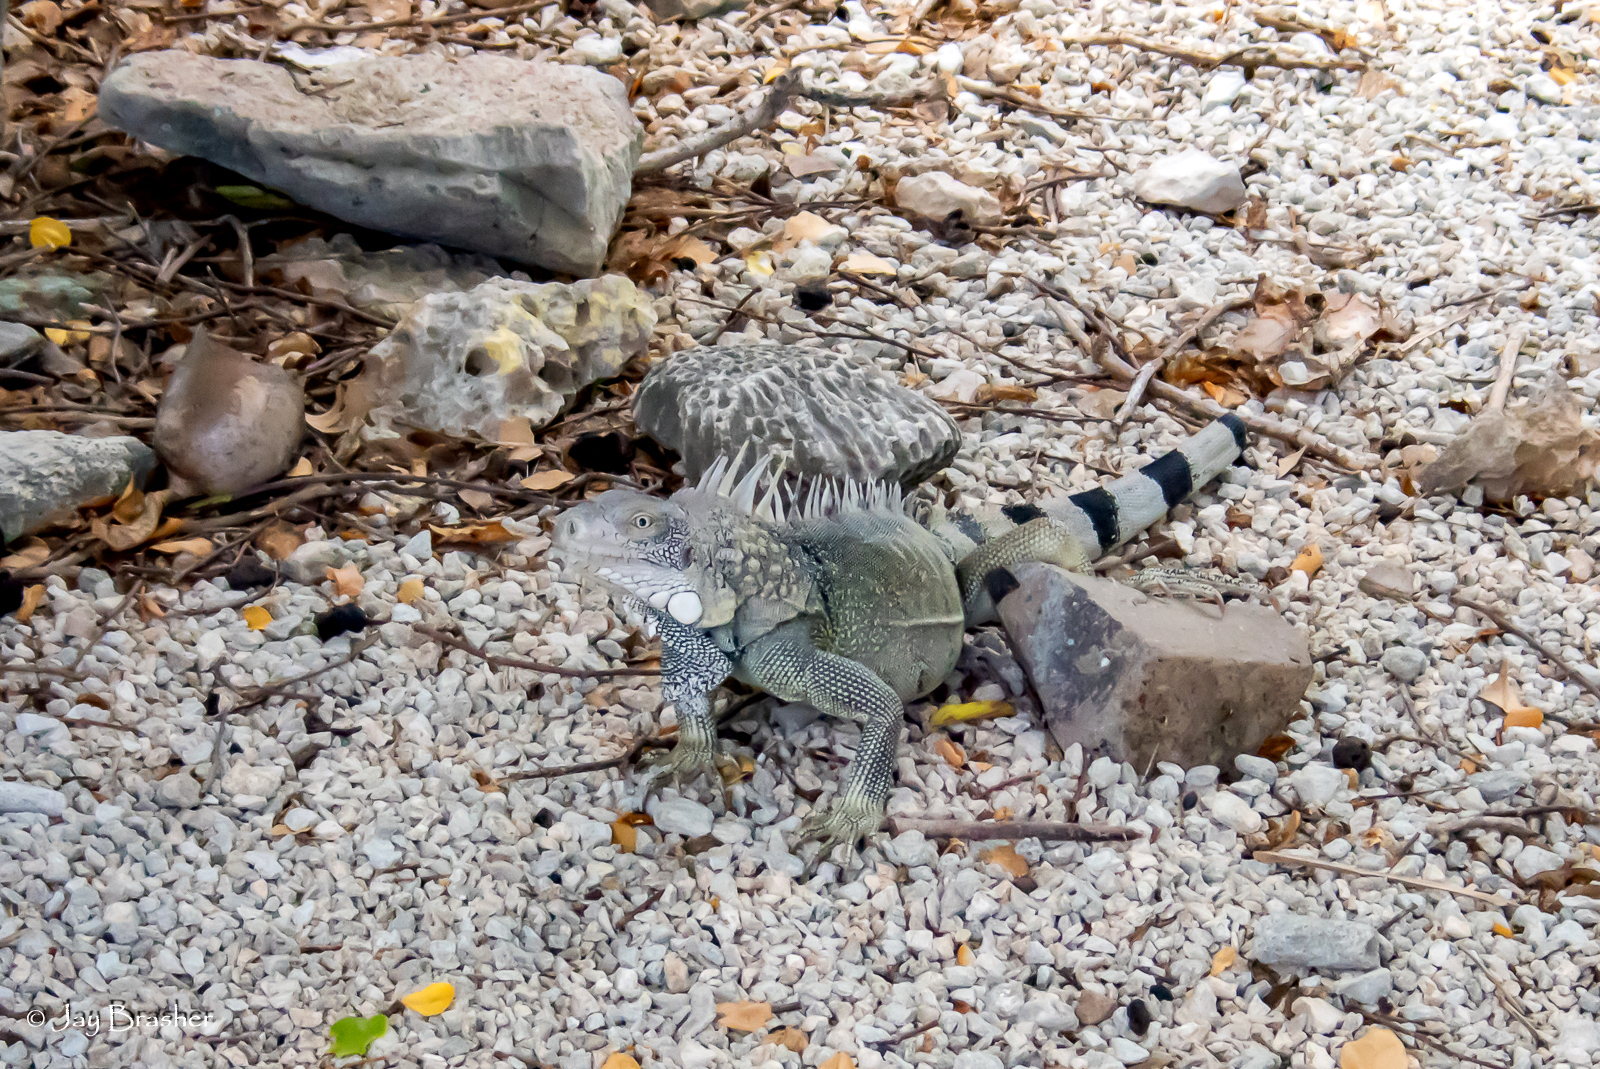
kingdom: Animalia
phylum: Chordata
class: Squamata
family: Iguanidae
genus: Iguana
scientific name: Iguana iguana
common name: Green iguana
